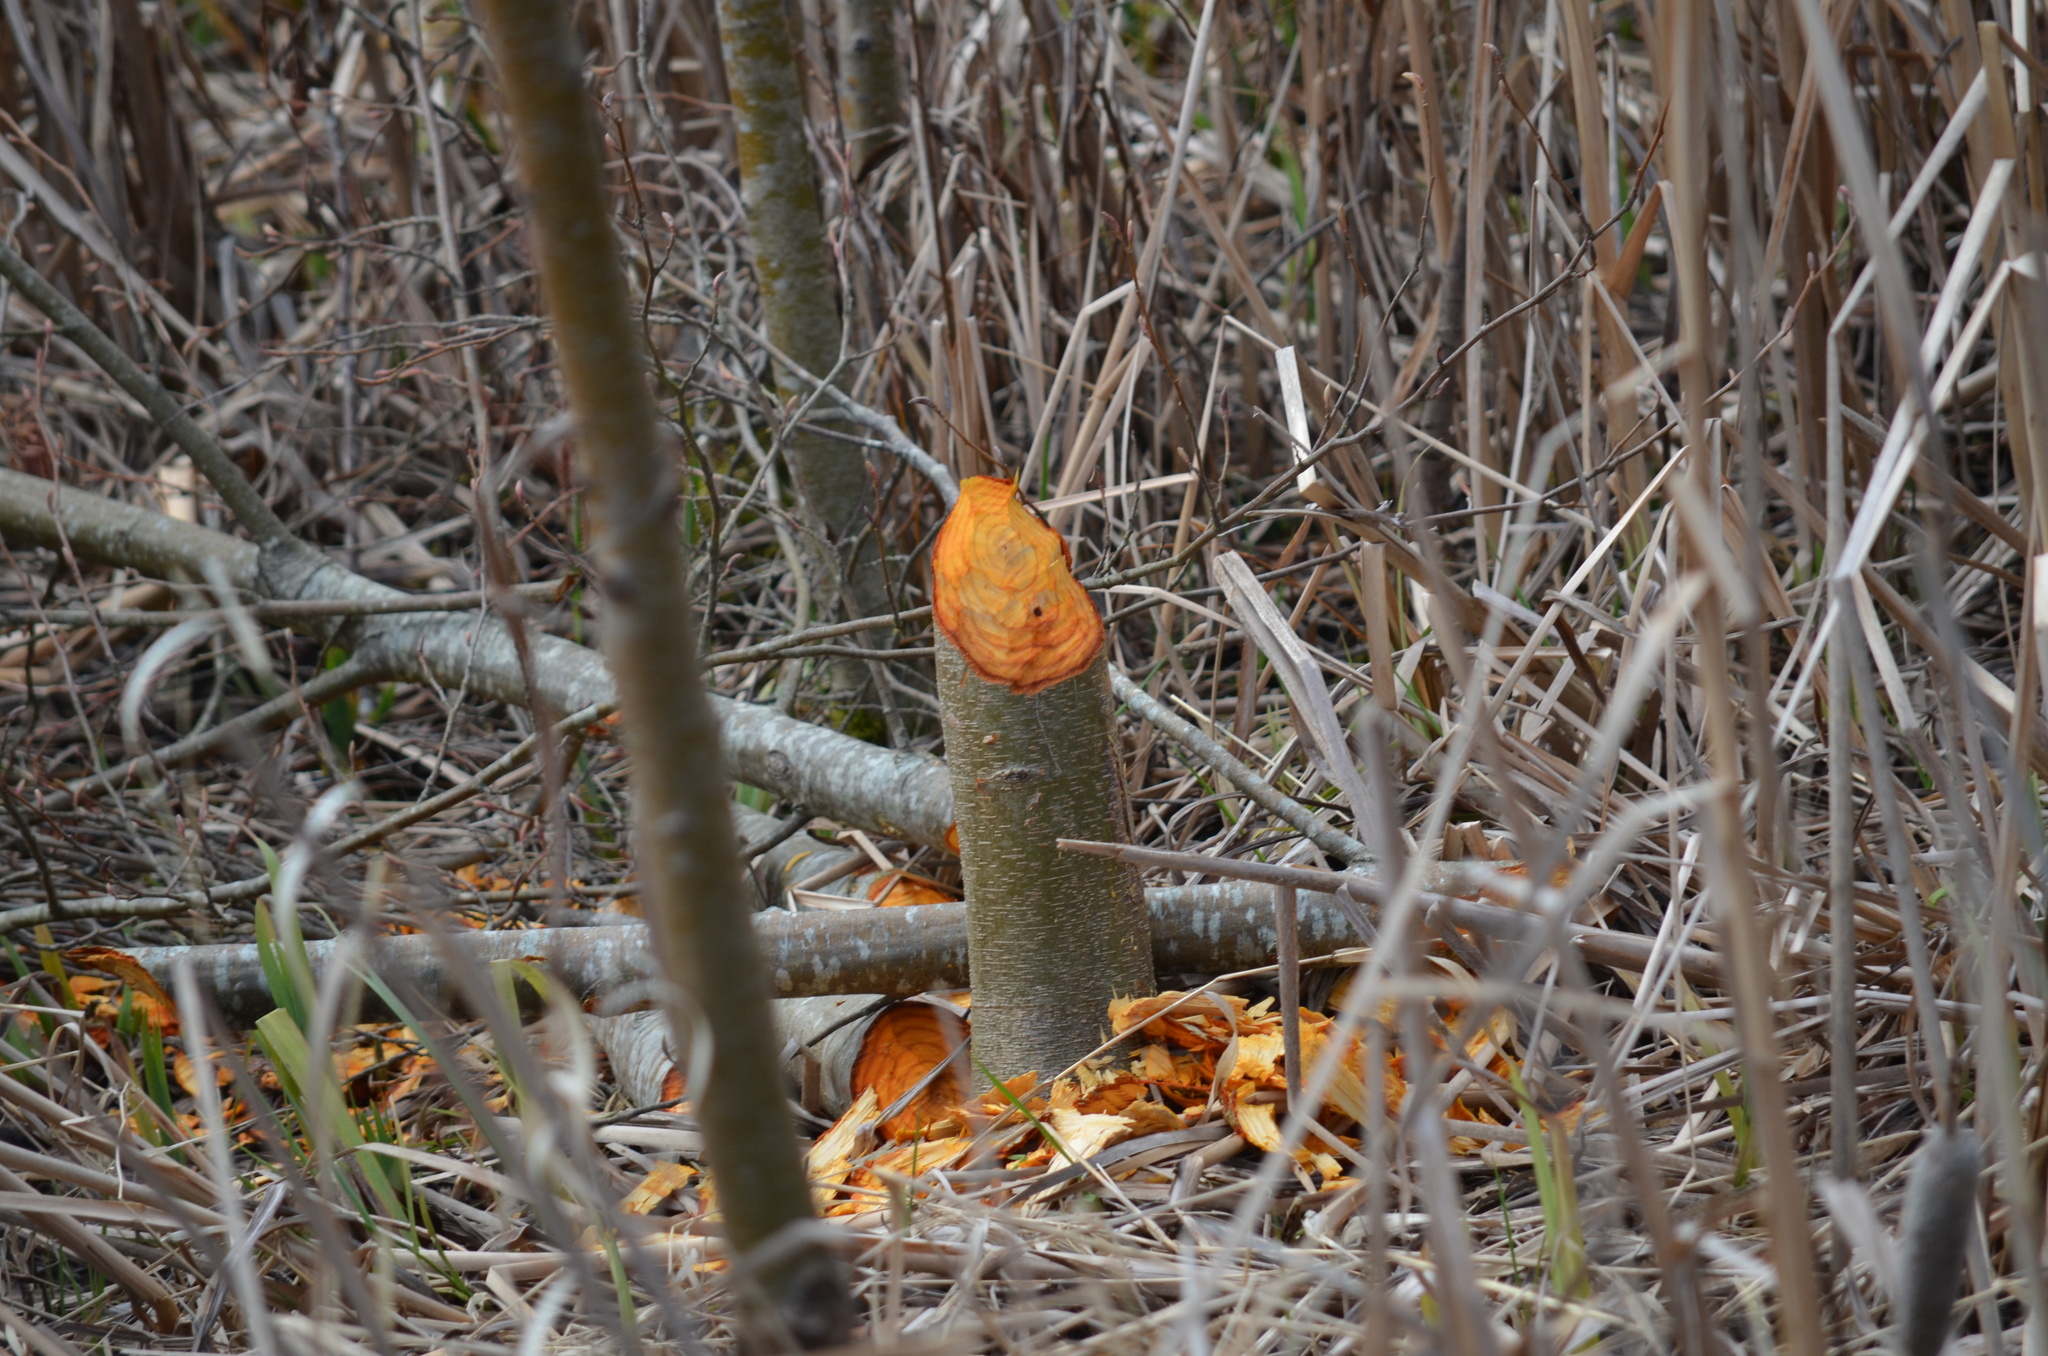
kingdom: Animalia
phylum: Chordata
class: Mammalia
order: Rodentia
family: Castoridae
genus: Castor
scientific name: Castor canadensis
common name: American beaver
